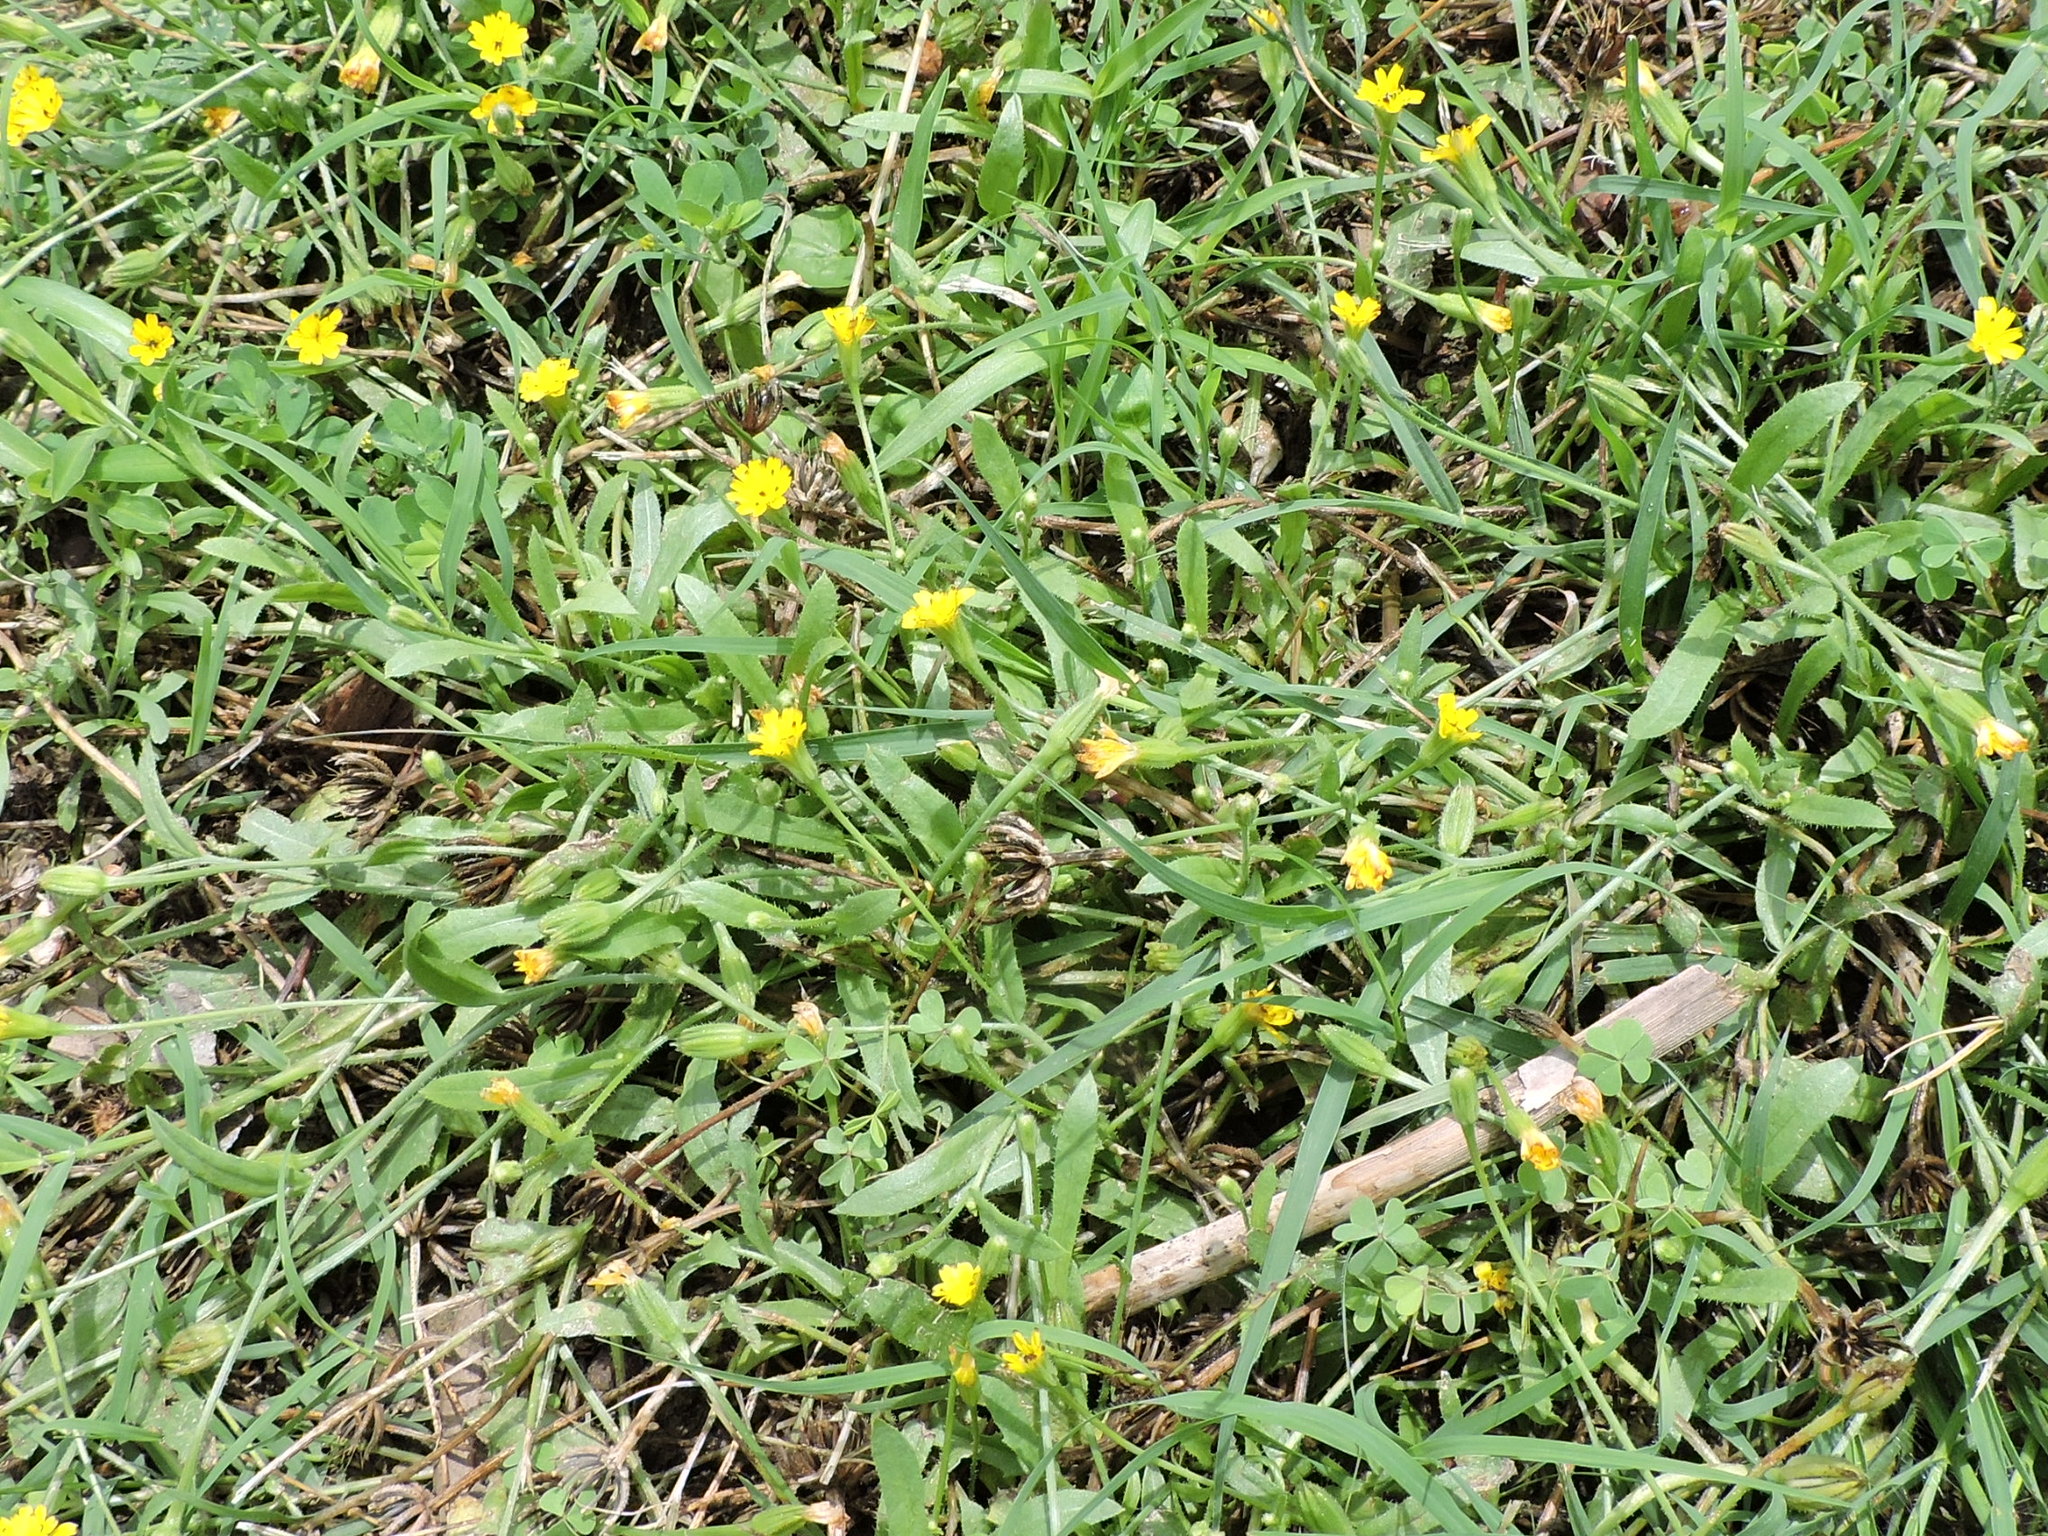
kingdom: Plantae
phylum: Tracheophyta
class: Magnoliopsida
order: Asterales
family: Asteraceae
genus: Hedypnois
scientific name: Hedypnois rhagadioloides
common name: Cretan weed
